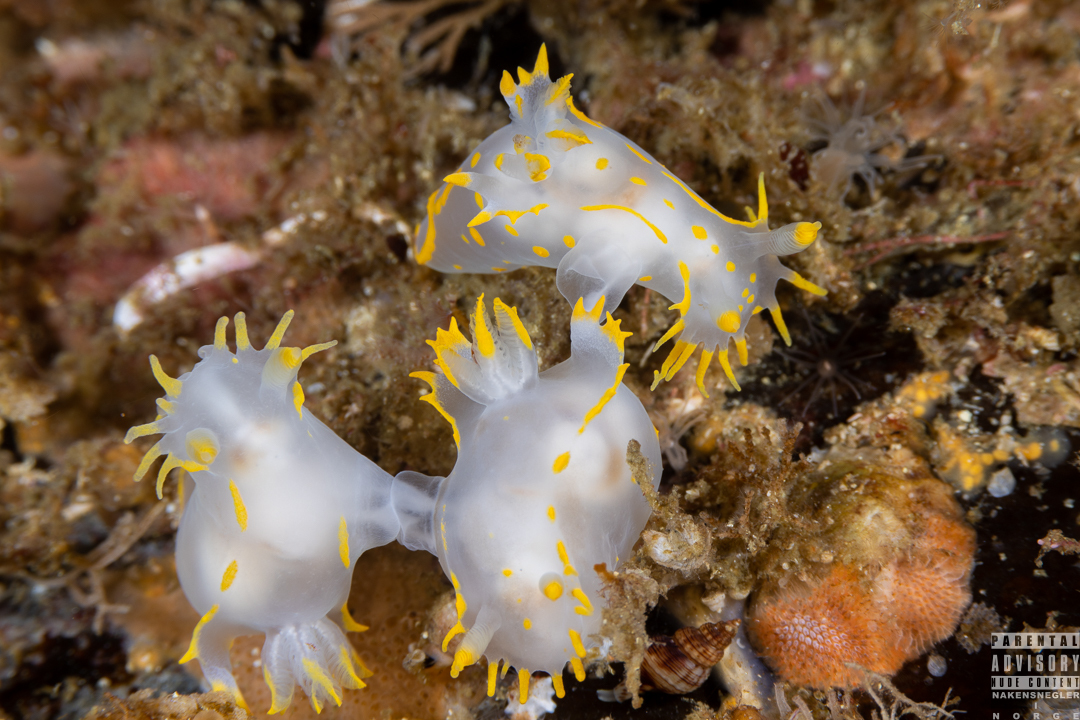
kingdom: Animalia
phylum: Mollusca
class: Gastropoda
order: Nudibranchia
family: Polyceridae
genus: Polycera
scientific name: Polycera faeroensis
